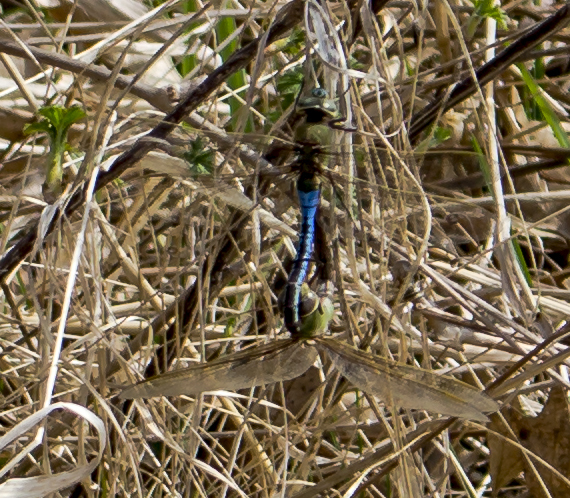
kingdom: Animalia
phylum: Arthropoda
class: Insecta
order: Odonata
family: Aeshnidae
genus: Anax
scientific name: Anax junius
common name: Common green darner
